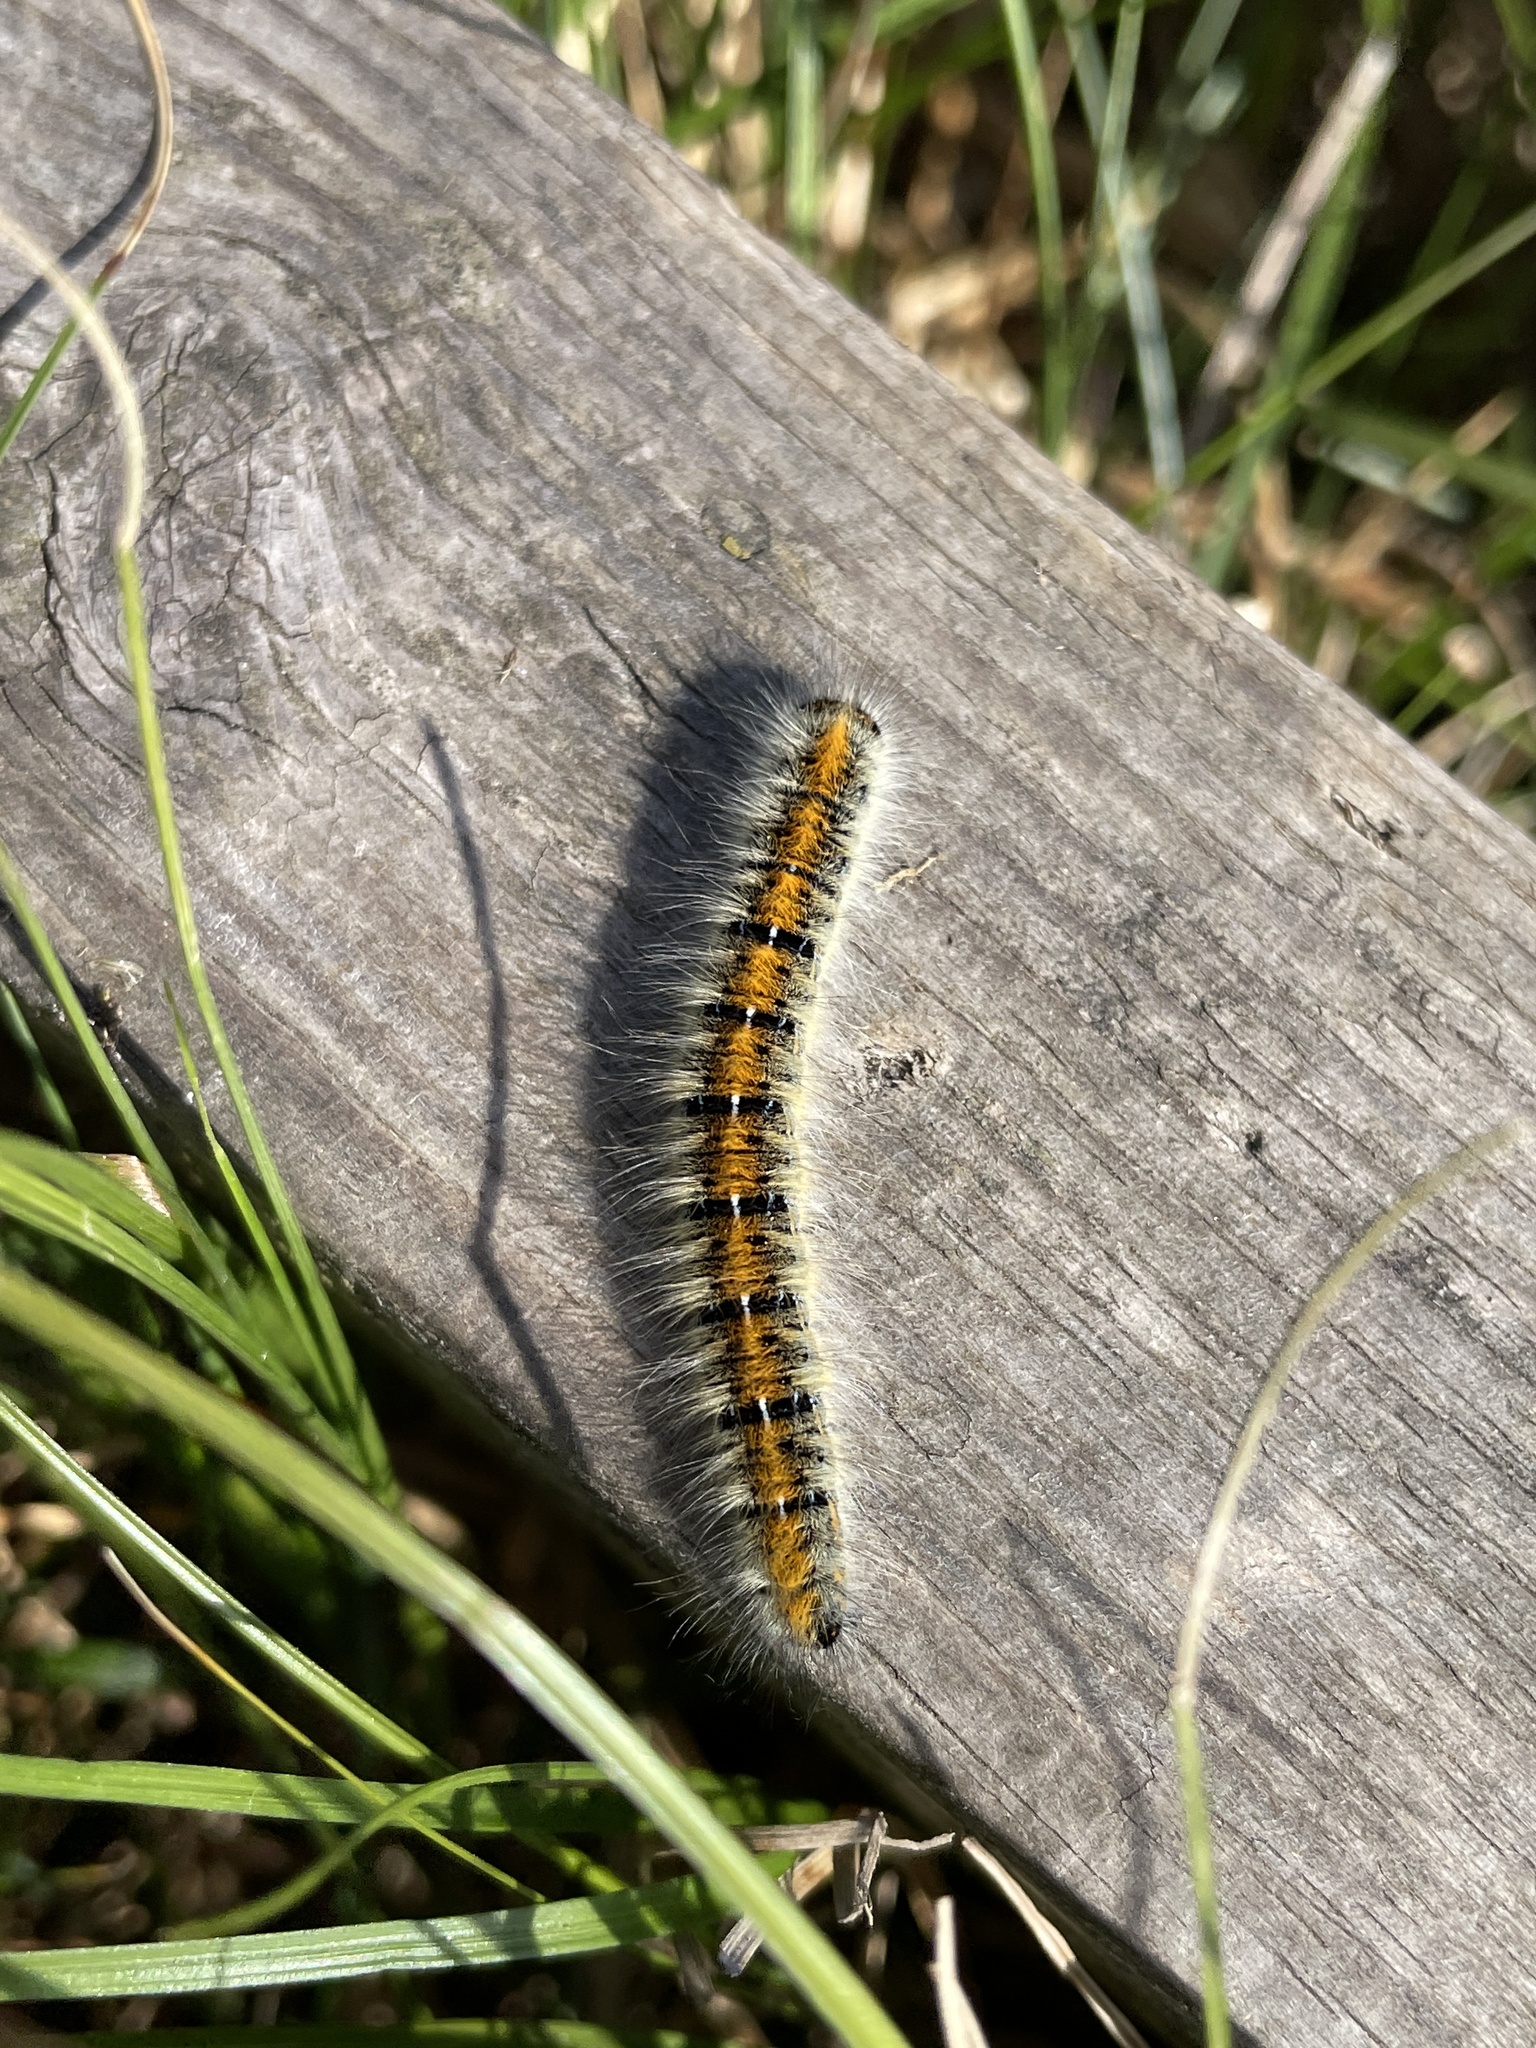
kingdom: Animalia
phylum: Arthropoda
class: Insecta
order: Lepidoptera
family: Lasiocampidae
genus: Lasiocampa
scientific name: Lasiocampa trifolii
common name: Grass eggar
